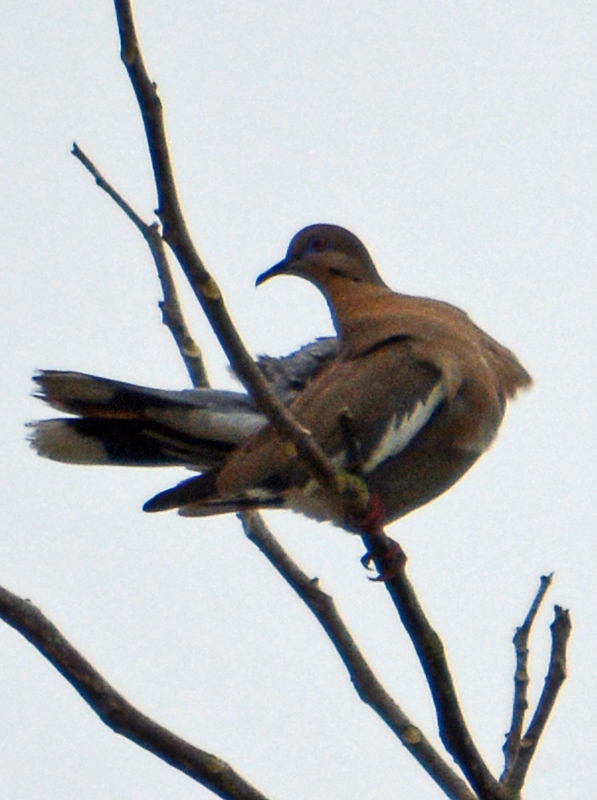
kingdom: Animalia
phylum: Chordata
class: Aves
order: Columbiformes
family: Columbidae
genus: Zenaida
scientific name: Zenaida asiatica
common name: White-winged dove
